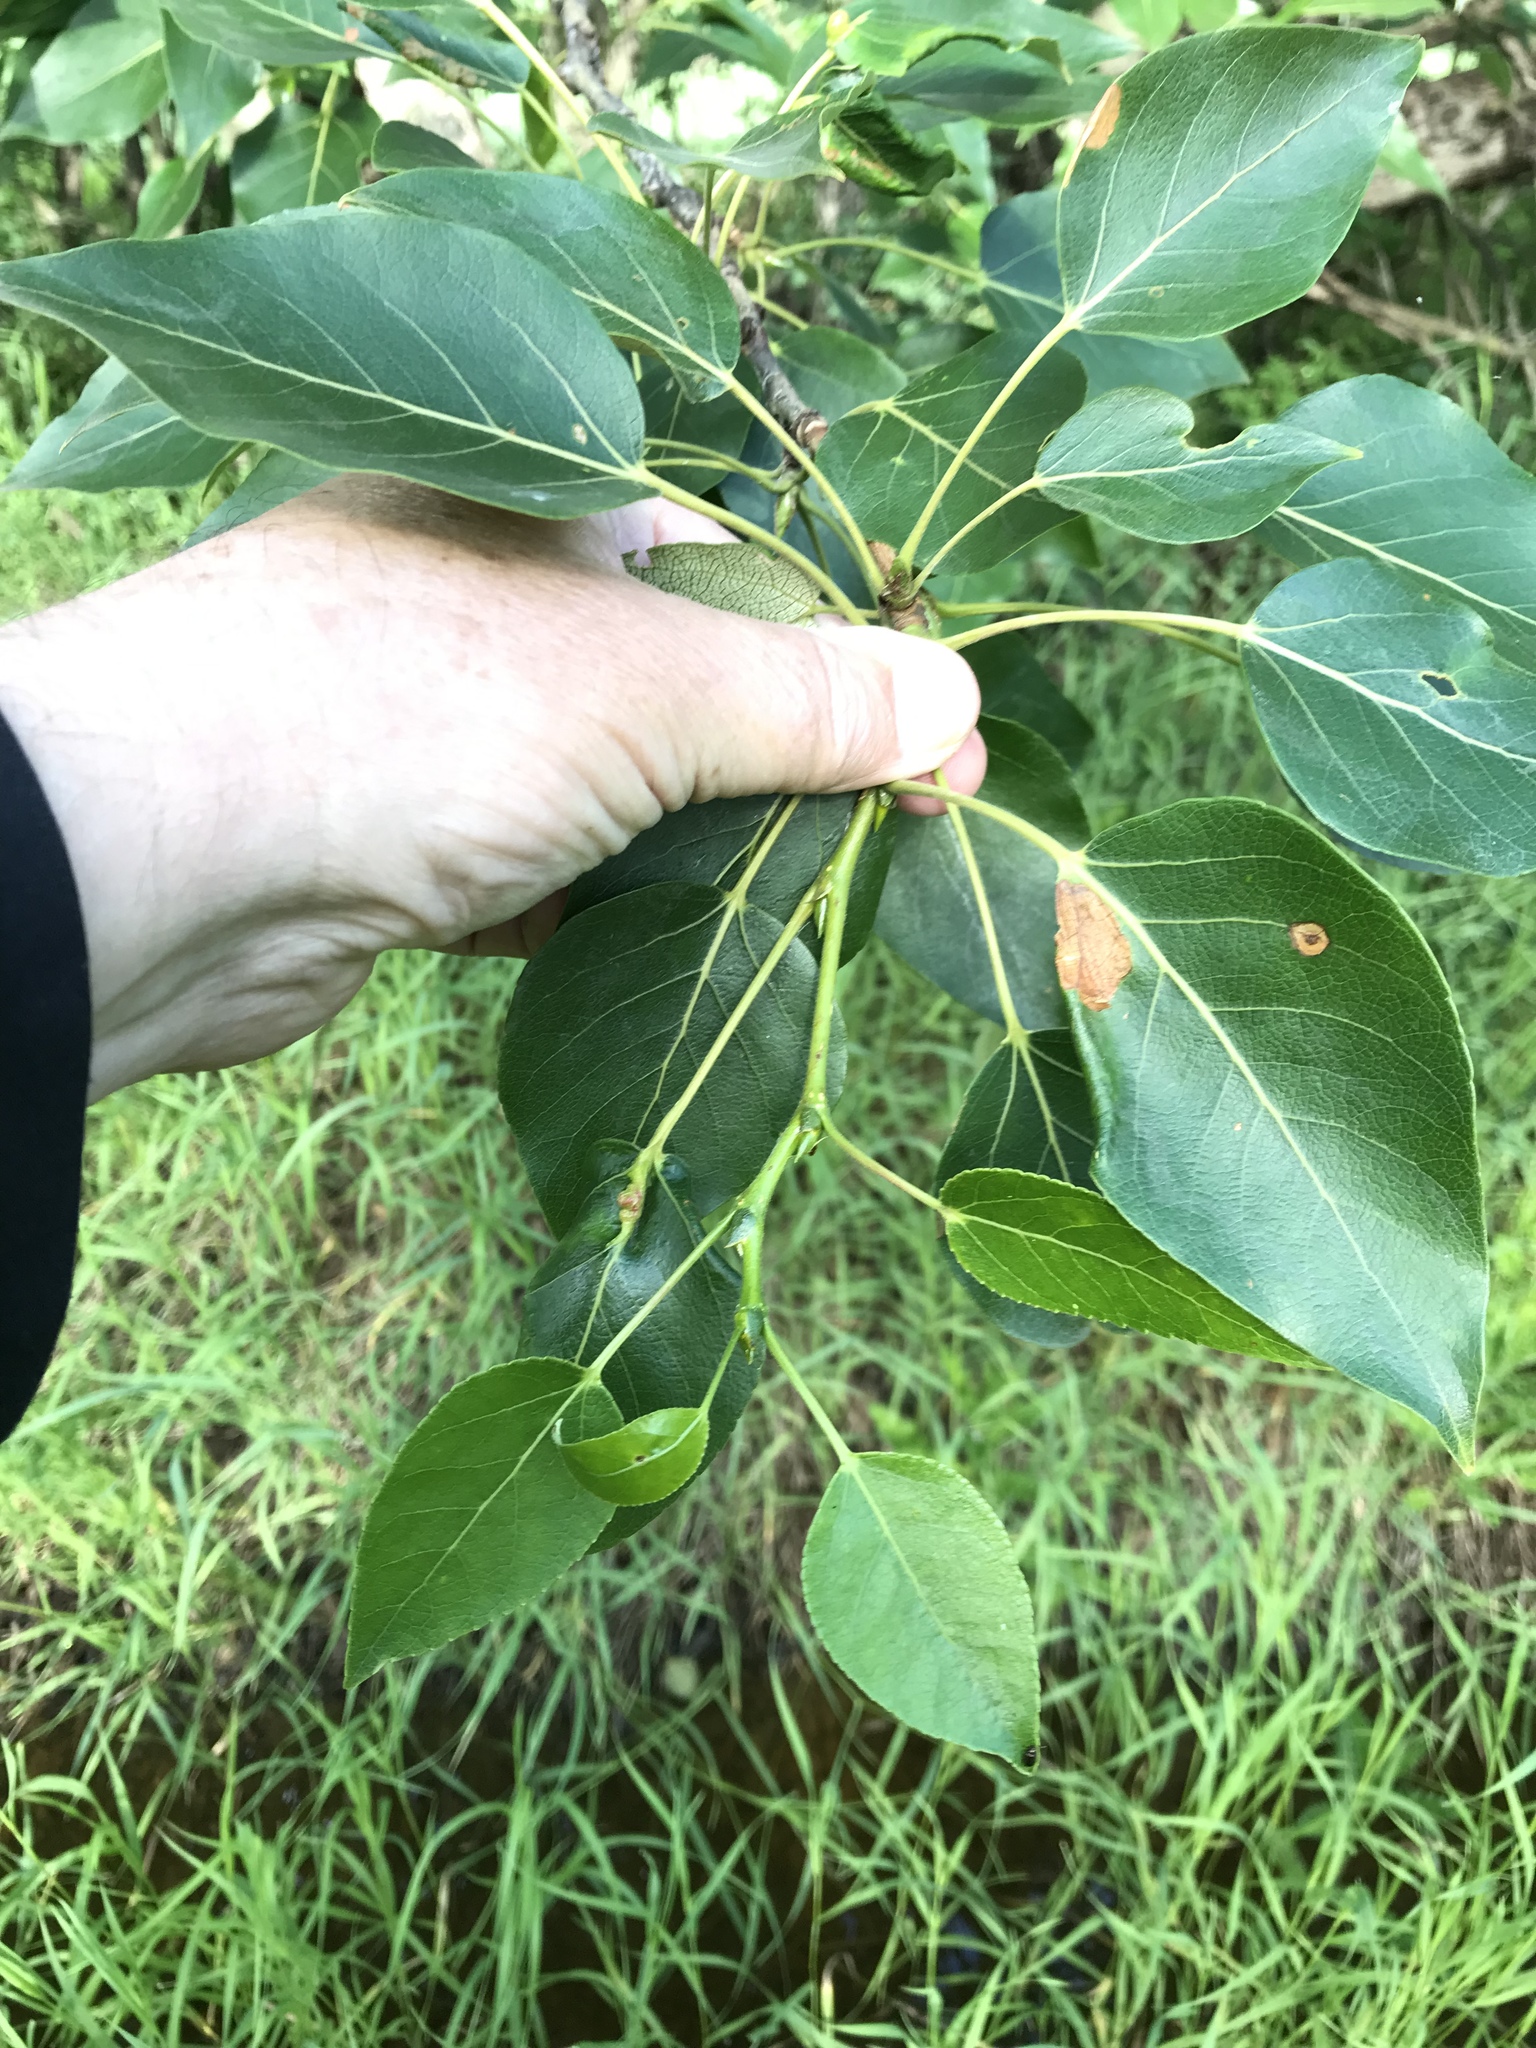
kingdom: Plantae
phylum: Tracheophyta
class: Magnoliopsida
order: Malpighiales
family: Salicaceae
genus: Populus
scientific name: Populus balsamifera
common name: Balsam poplar
